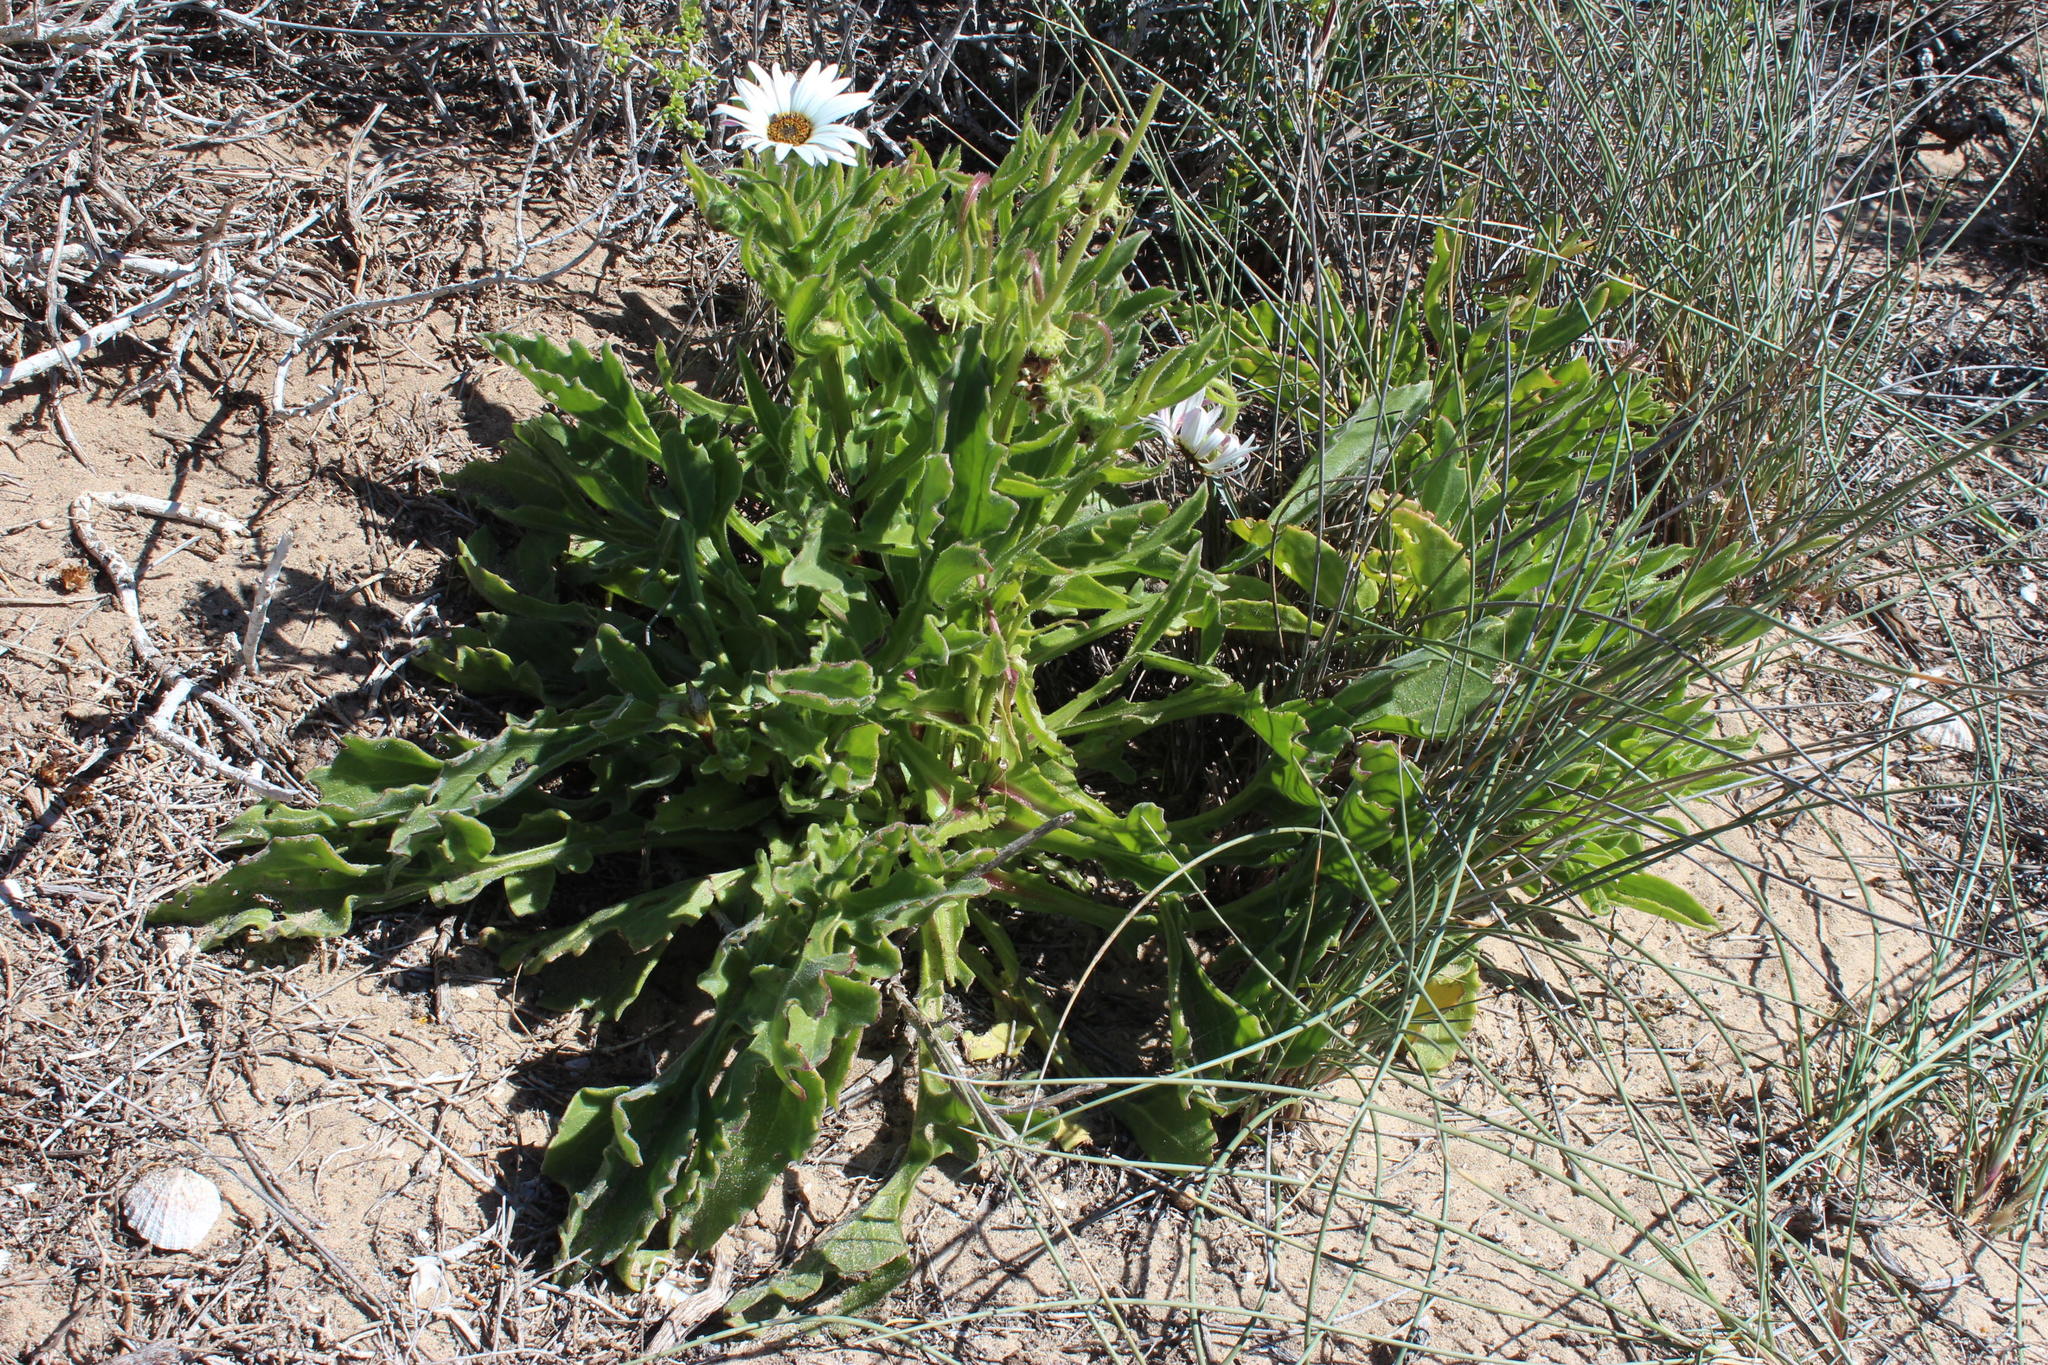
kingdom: Plantae
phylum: Tracheophyta
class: Magnoliopsida
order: Asterales
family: Asteraceae
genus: Arctotis
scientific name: Arctotis decurrens
